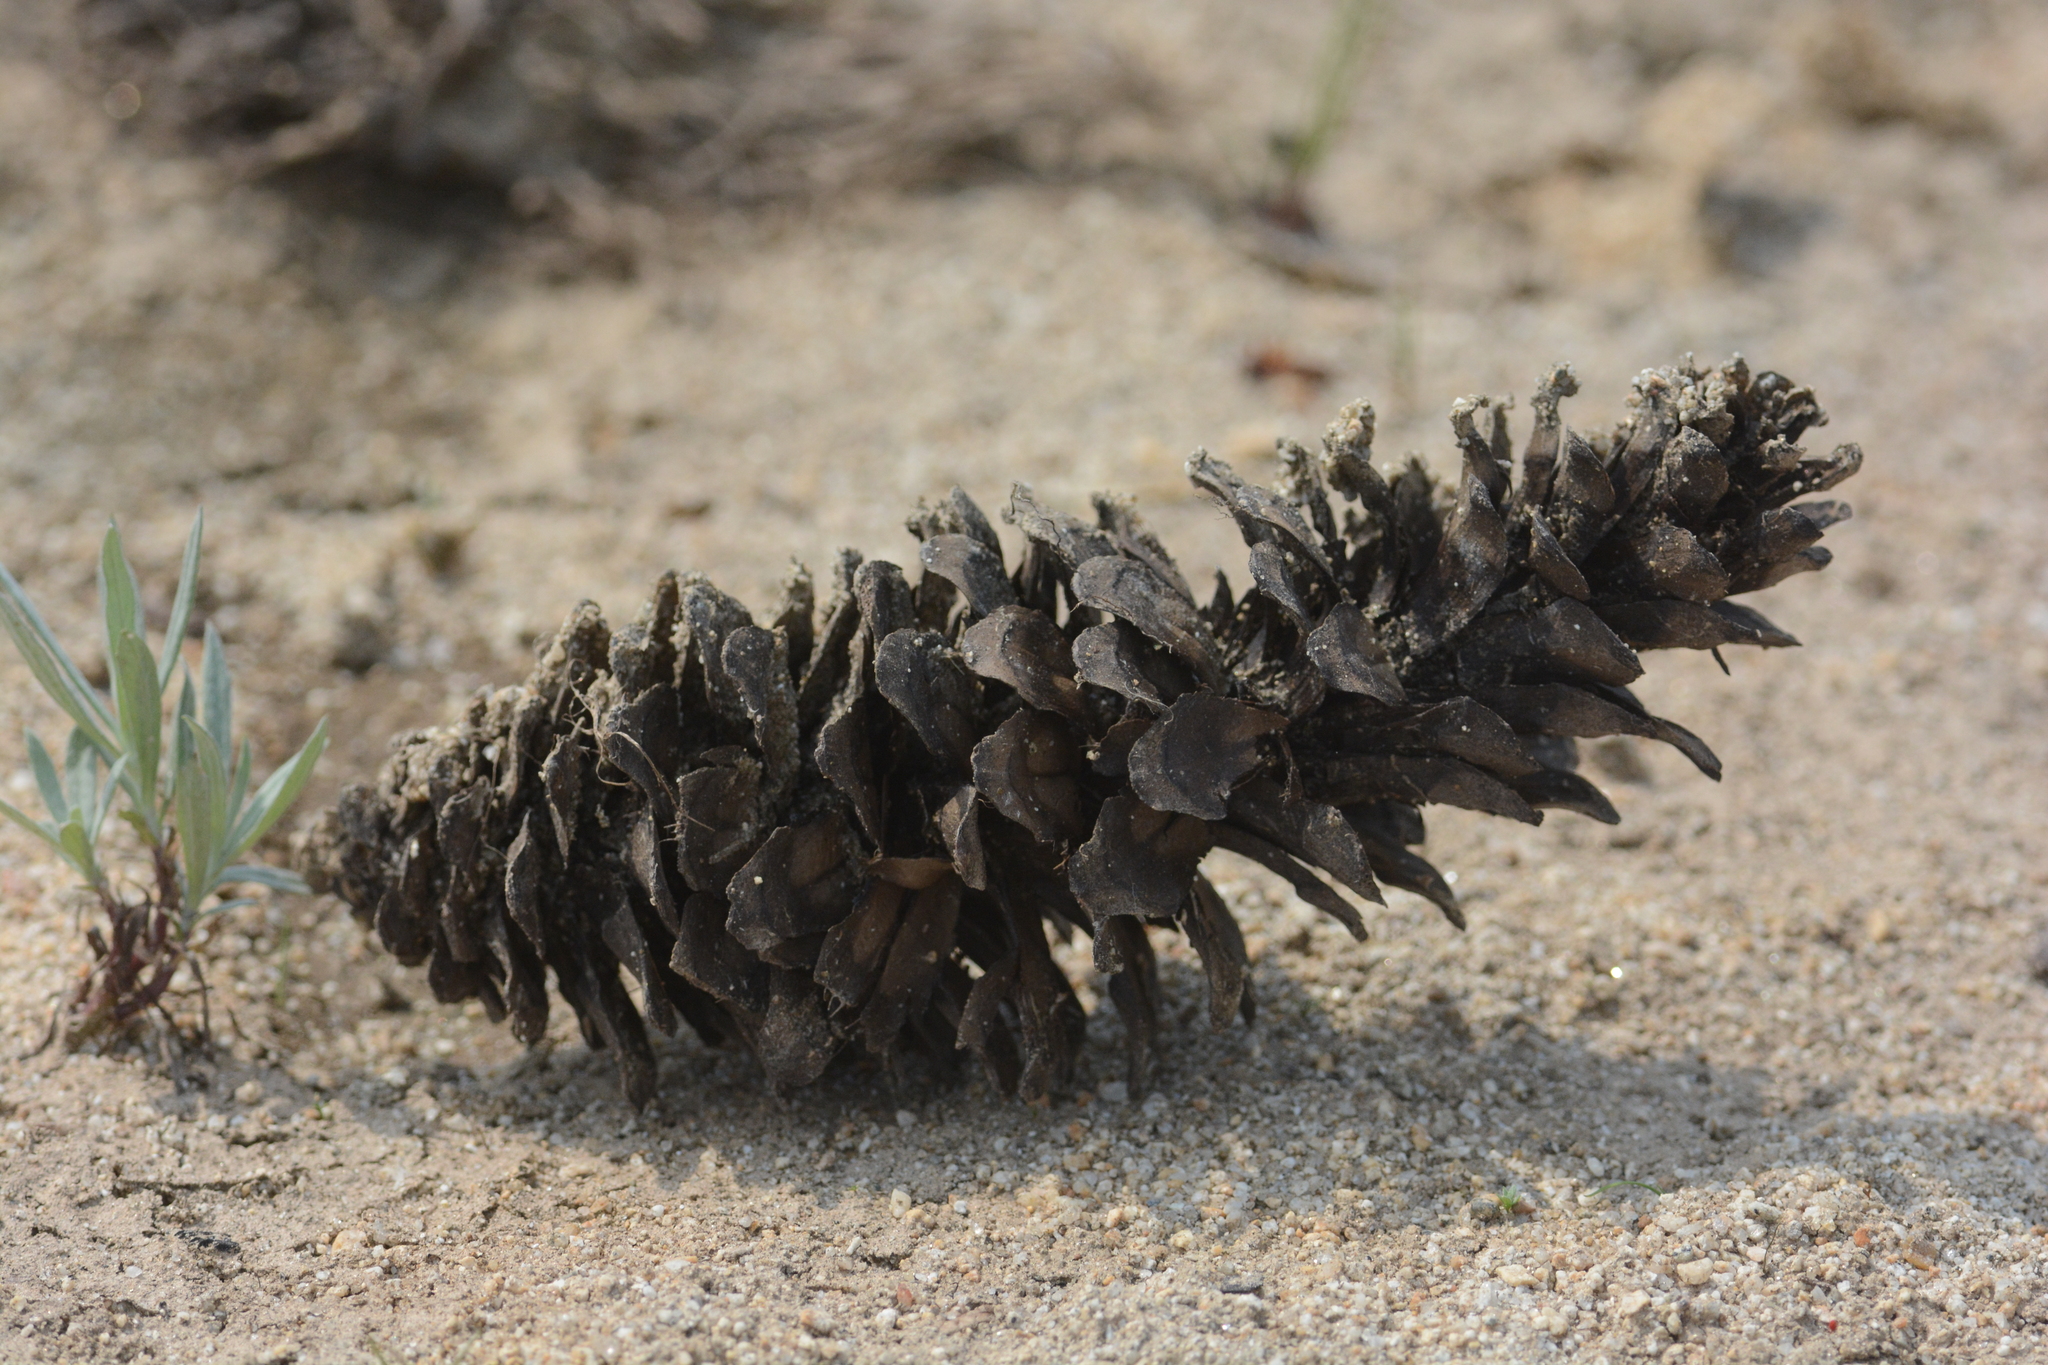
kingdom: Plantae
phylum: Tracheophyta
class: Pinopsida
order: Pinales
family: Pinaceae
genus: Pinus
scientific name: Pinus monticola
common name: Western white pine
